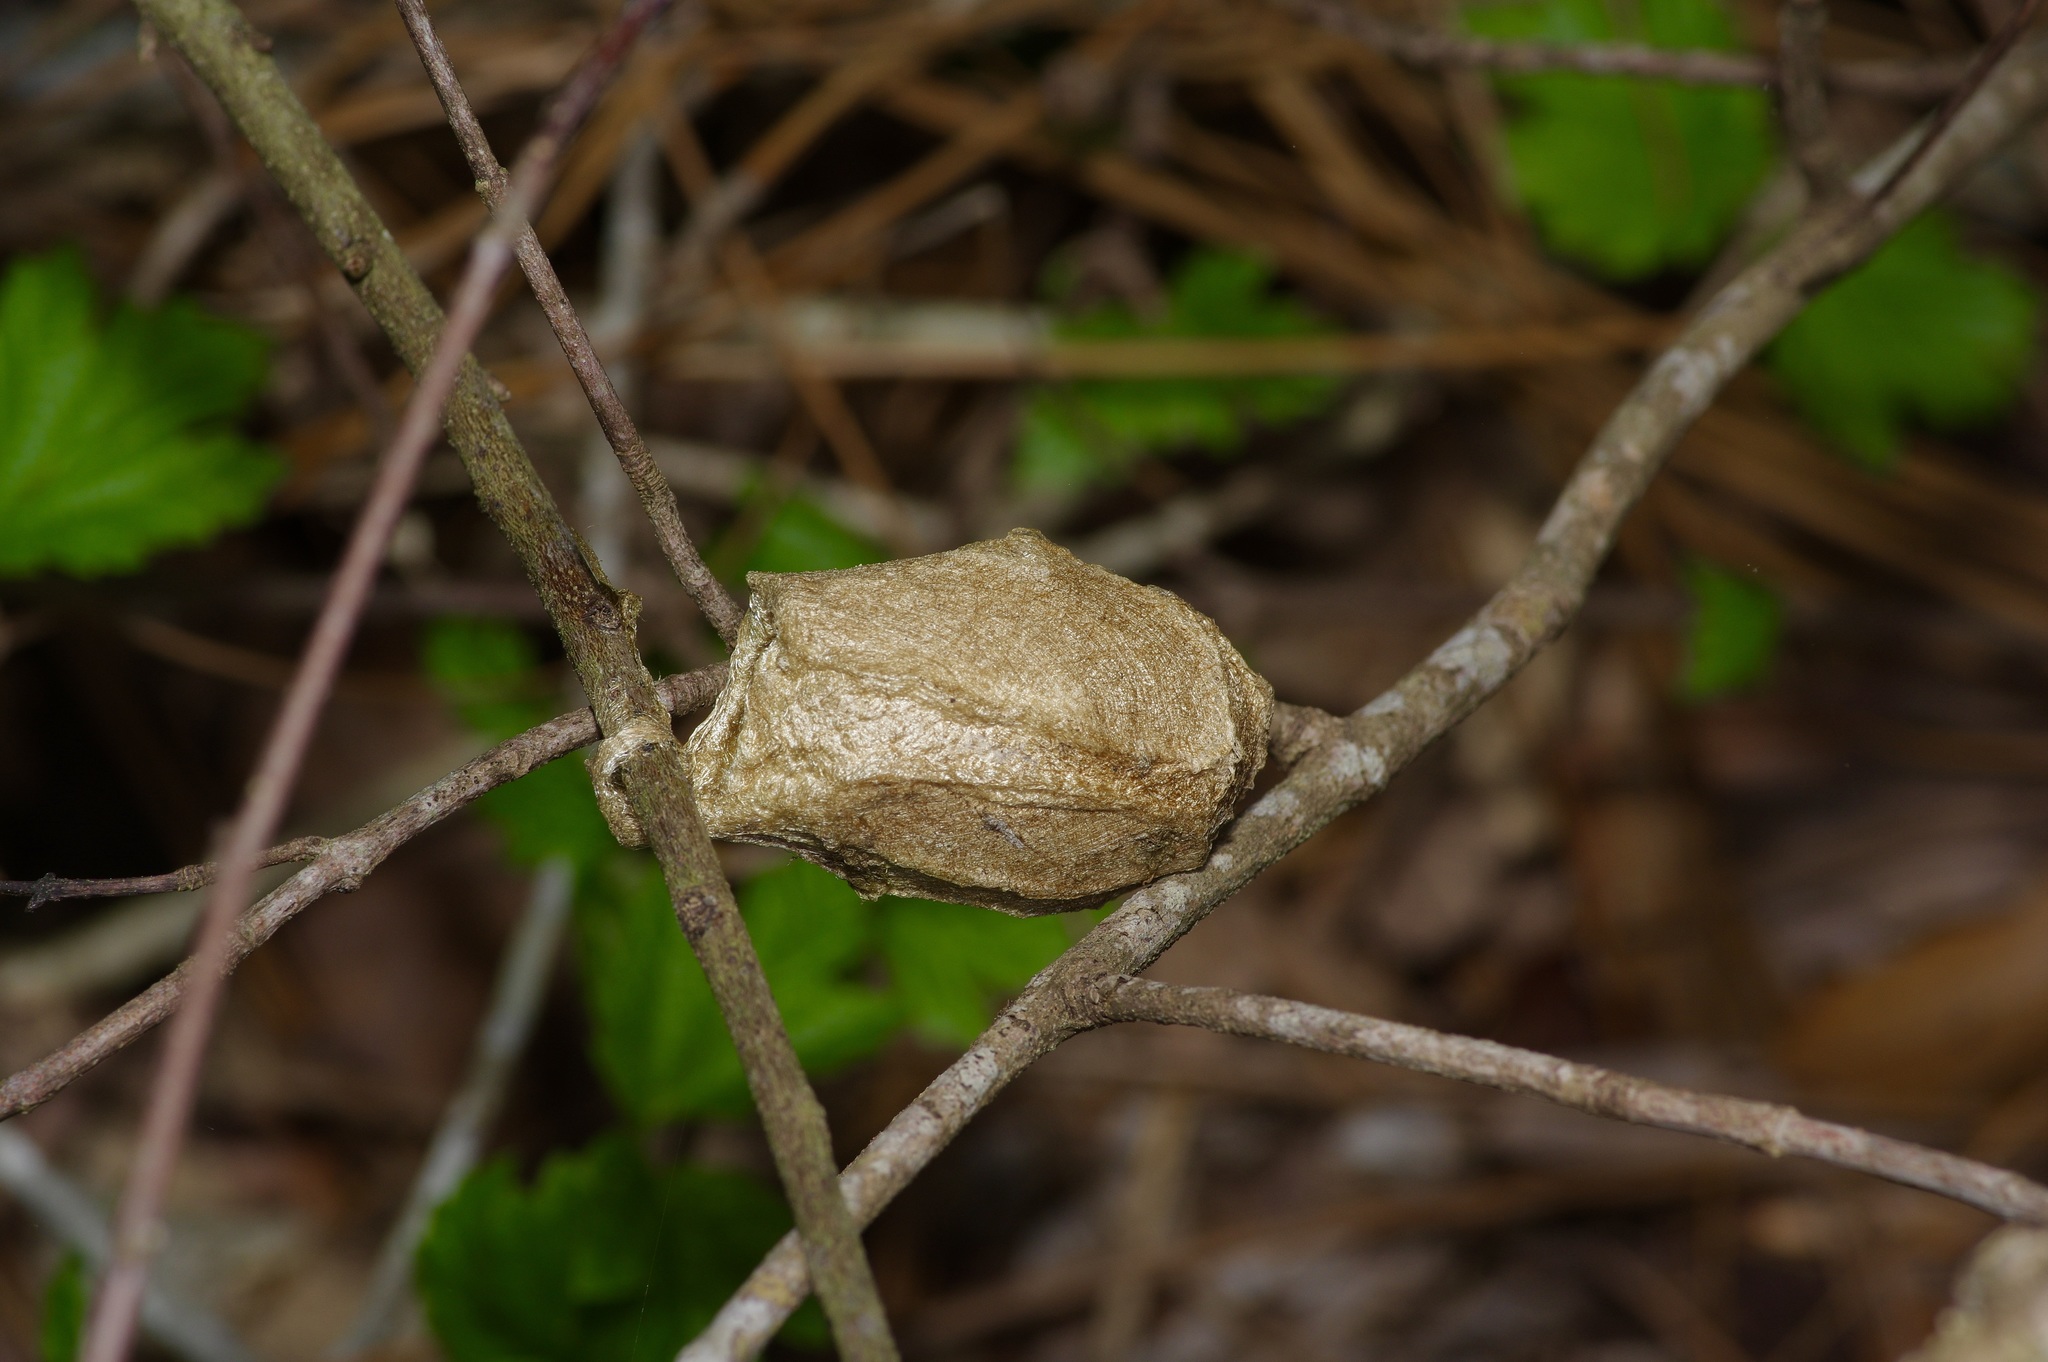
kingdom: Animalia
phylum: Arthropoda
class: Insecta
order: Lepidoptera
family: Saturniidae
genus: Antheraea
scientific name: Antheraea polyphemus
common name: Polyphemus moth
